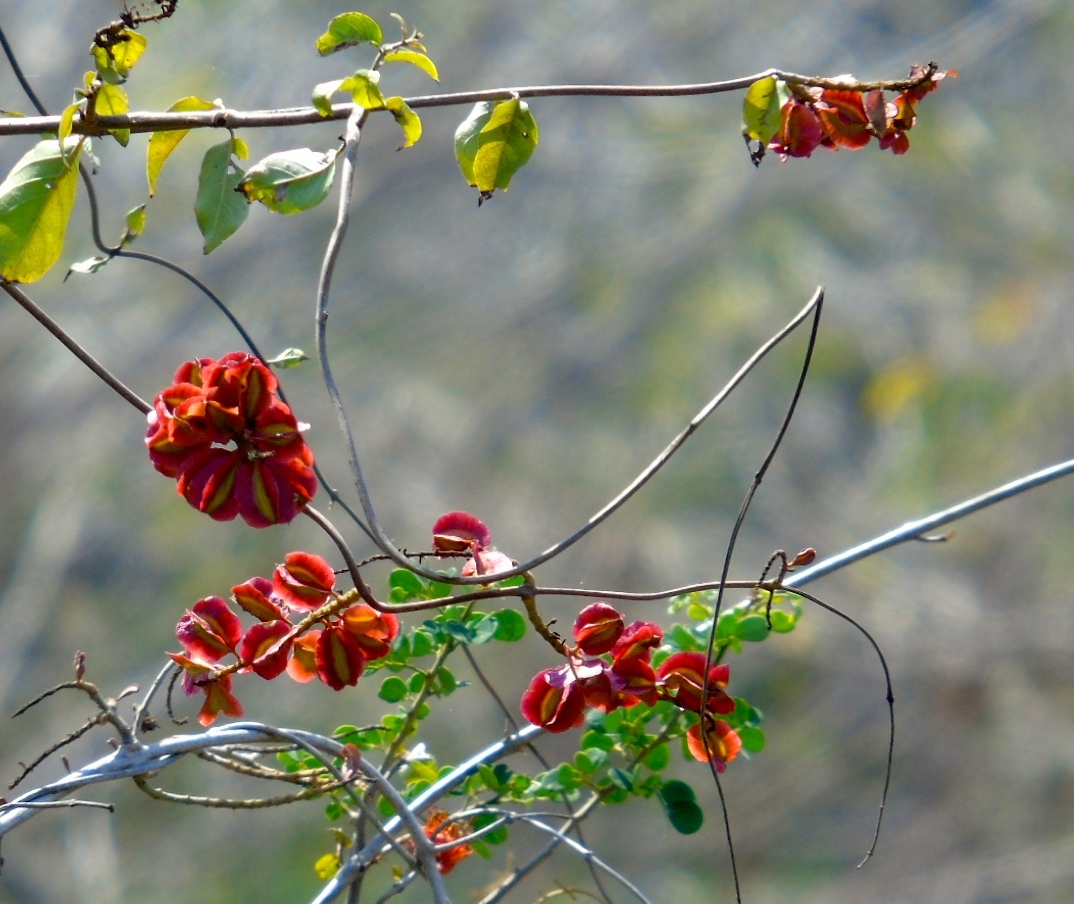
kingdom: Plantae
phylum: Tracheophyta
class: Magnoliopsida
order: Myrtales
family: Combretaceae
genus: Combretum
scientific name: Combretum farinosum
